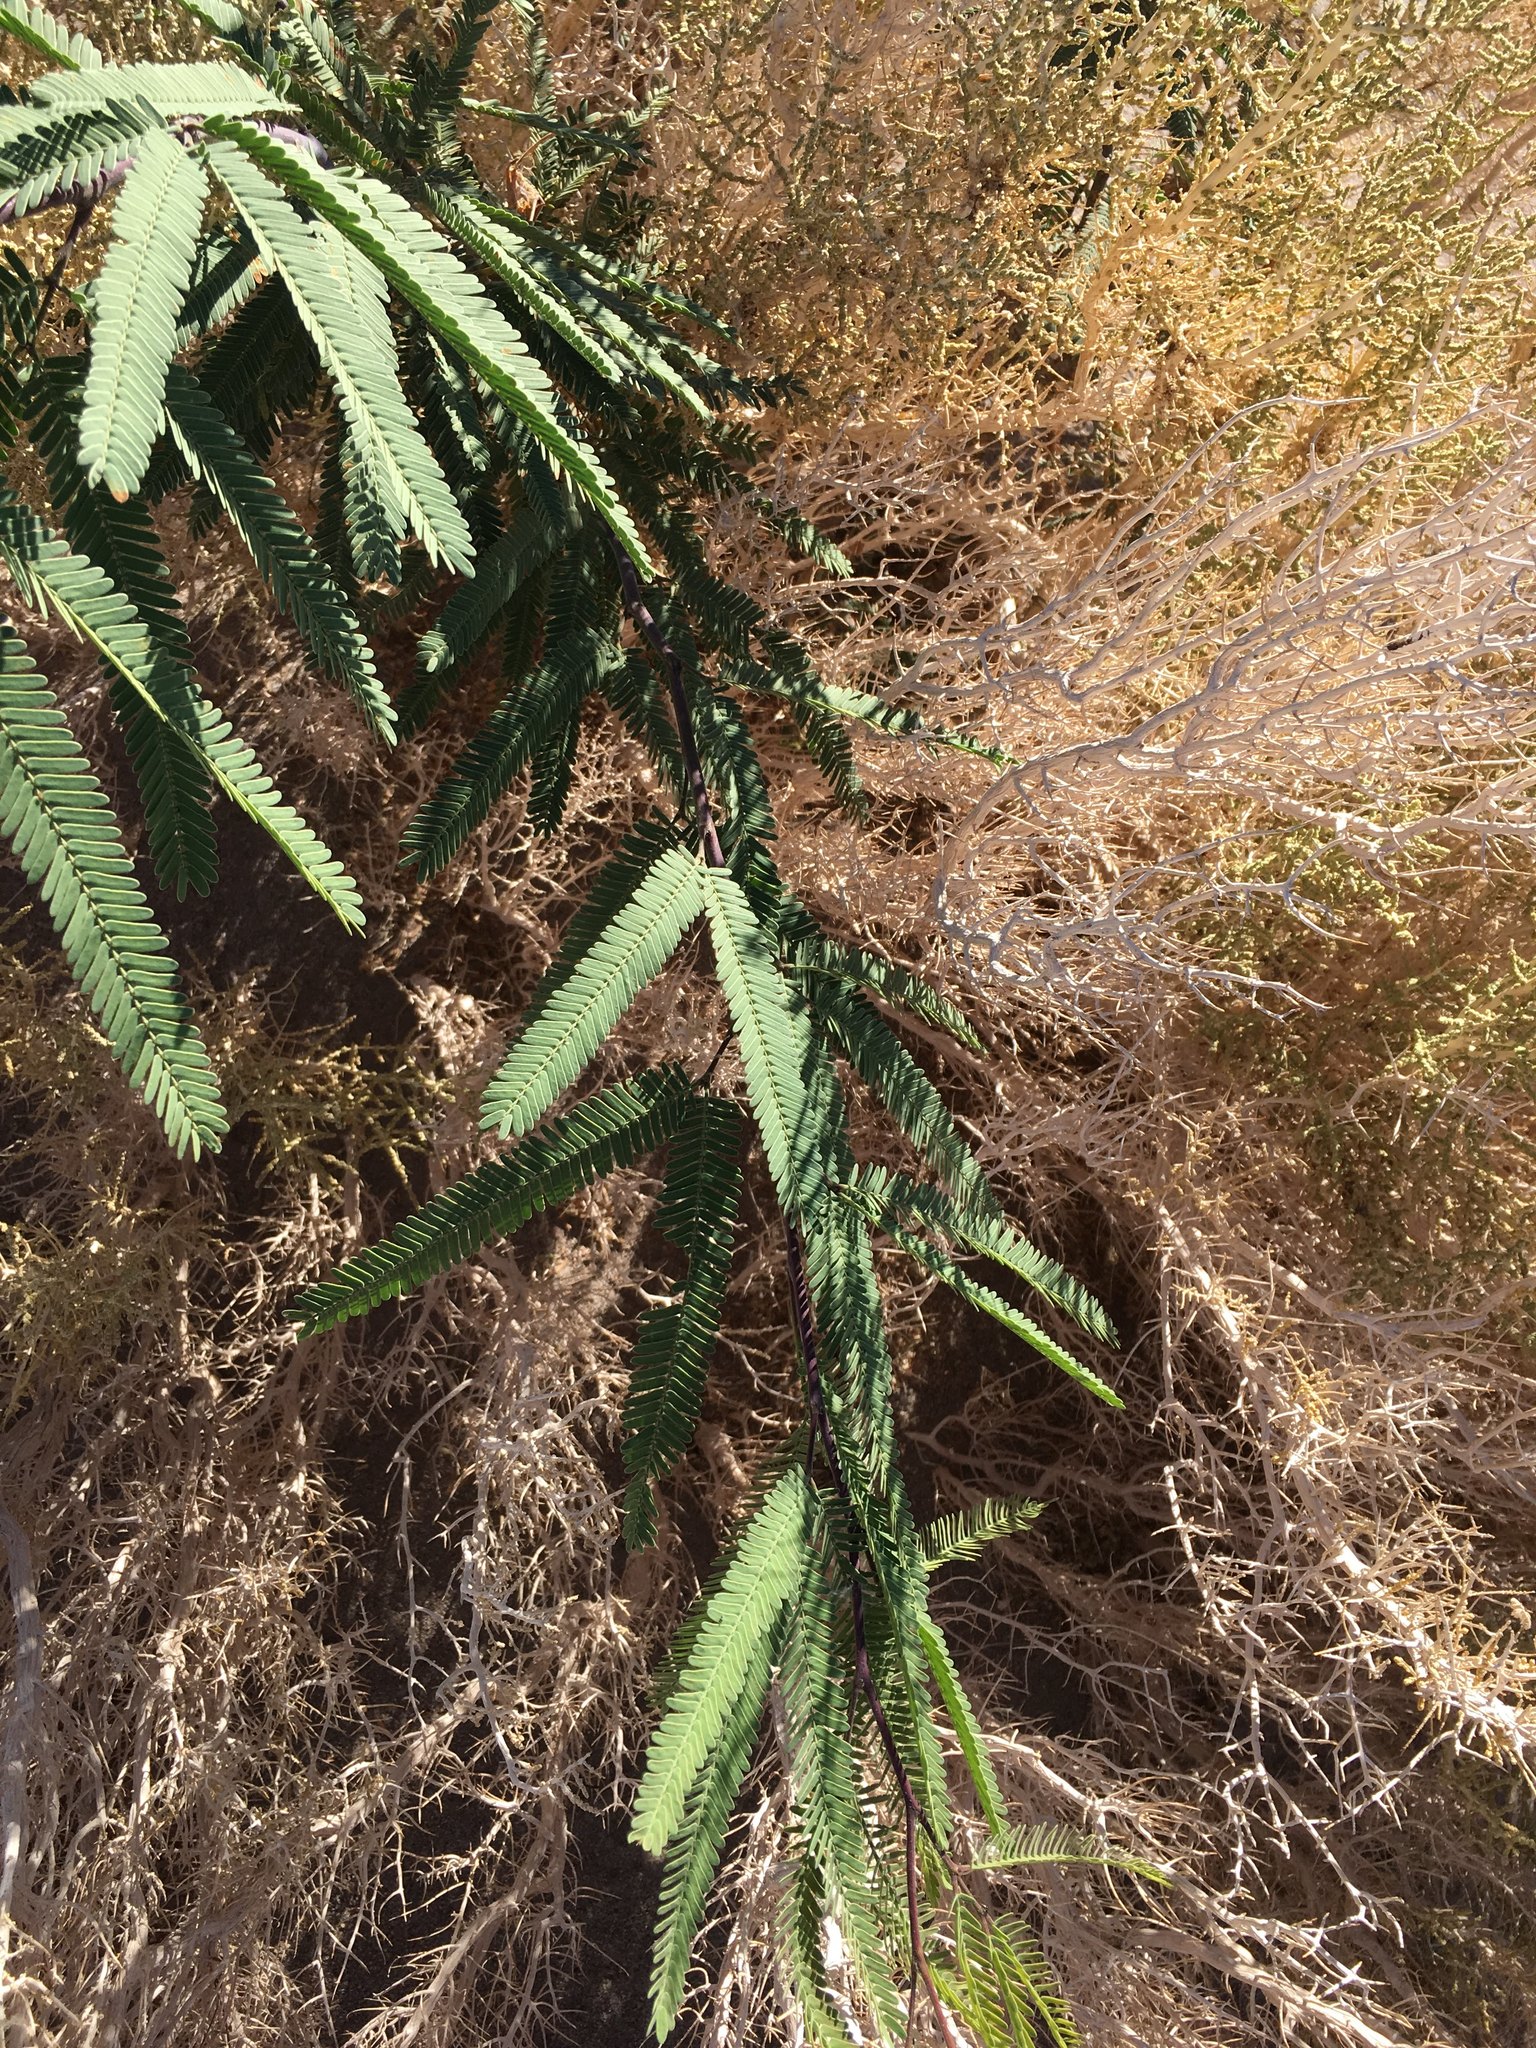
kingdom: Plantae
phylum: Tracheophyta
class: Magnoliopsida
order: Fabales
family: Fabaceae
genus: Prosopis
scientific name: Prosopis alba
